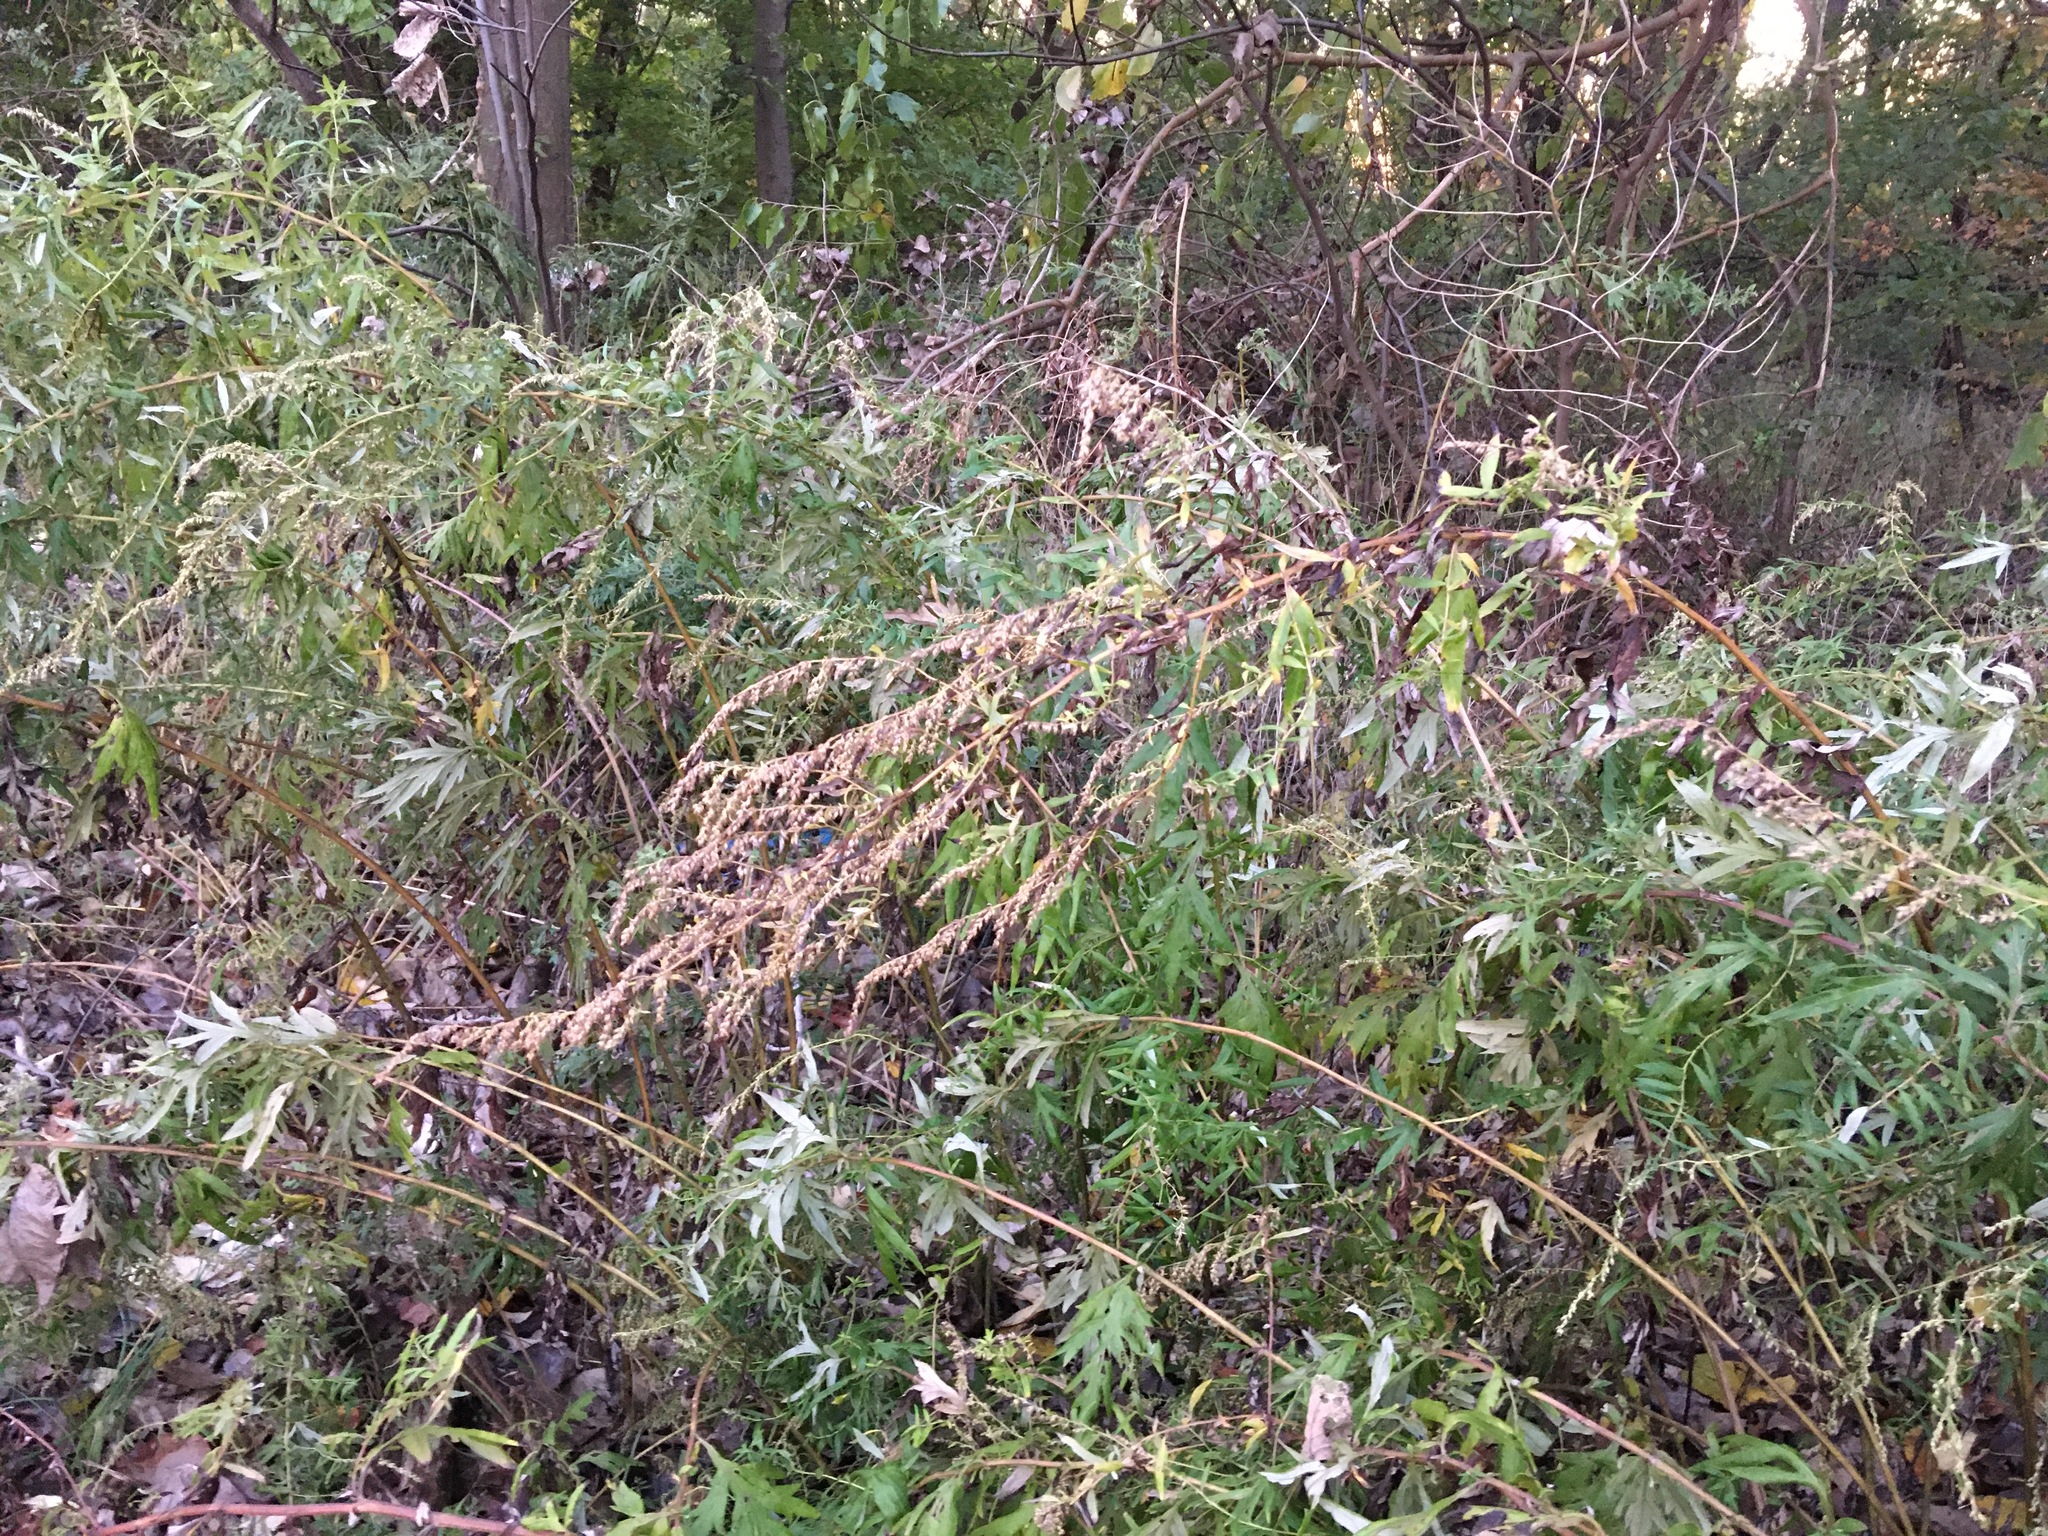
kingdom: Plantae
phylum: Tracheophyta
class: Magnoliopsida
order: Asterales
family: Asteraceae
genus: Artemisia
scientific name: Artemisia vulgaris
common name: Mugwort
